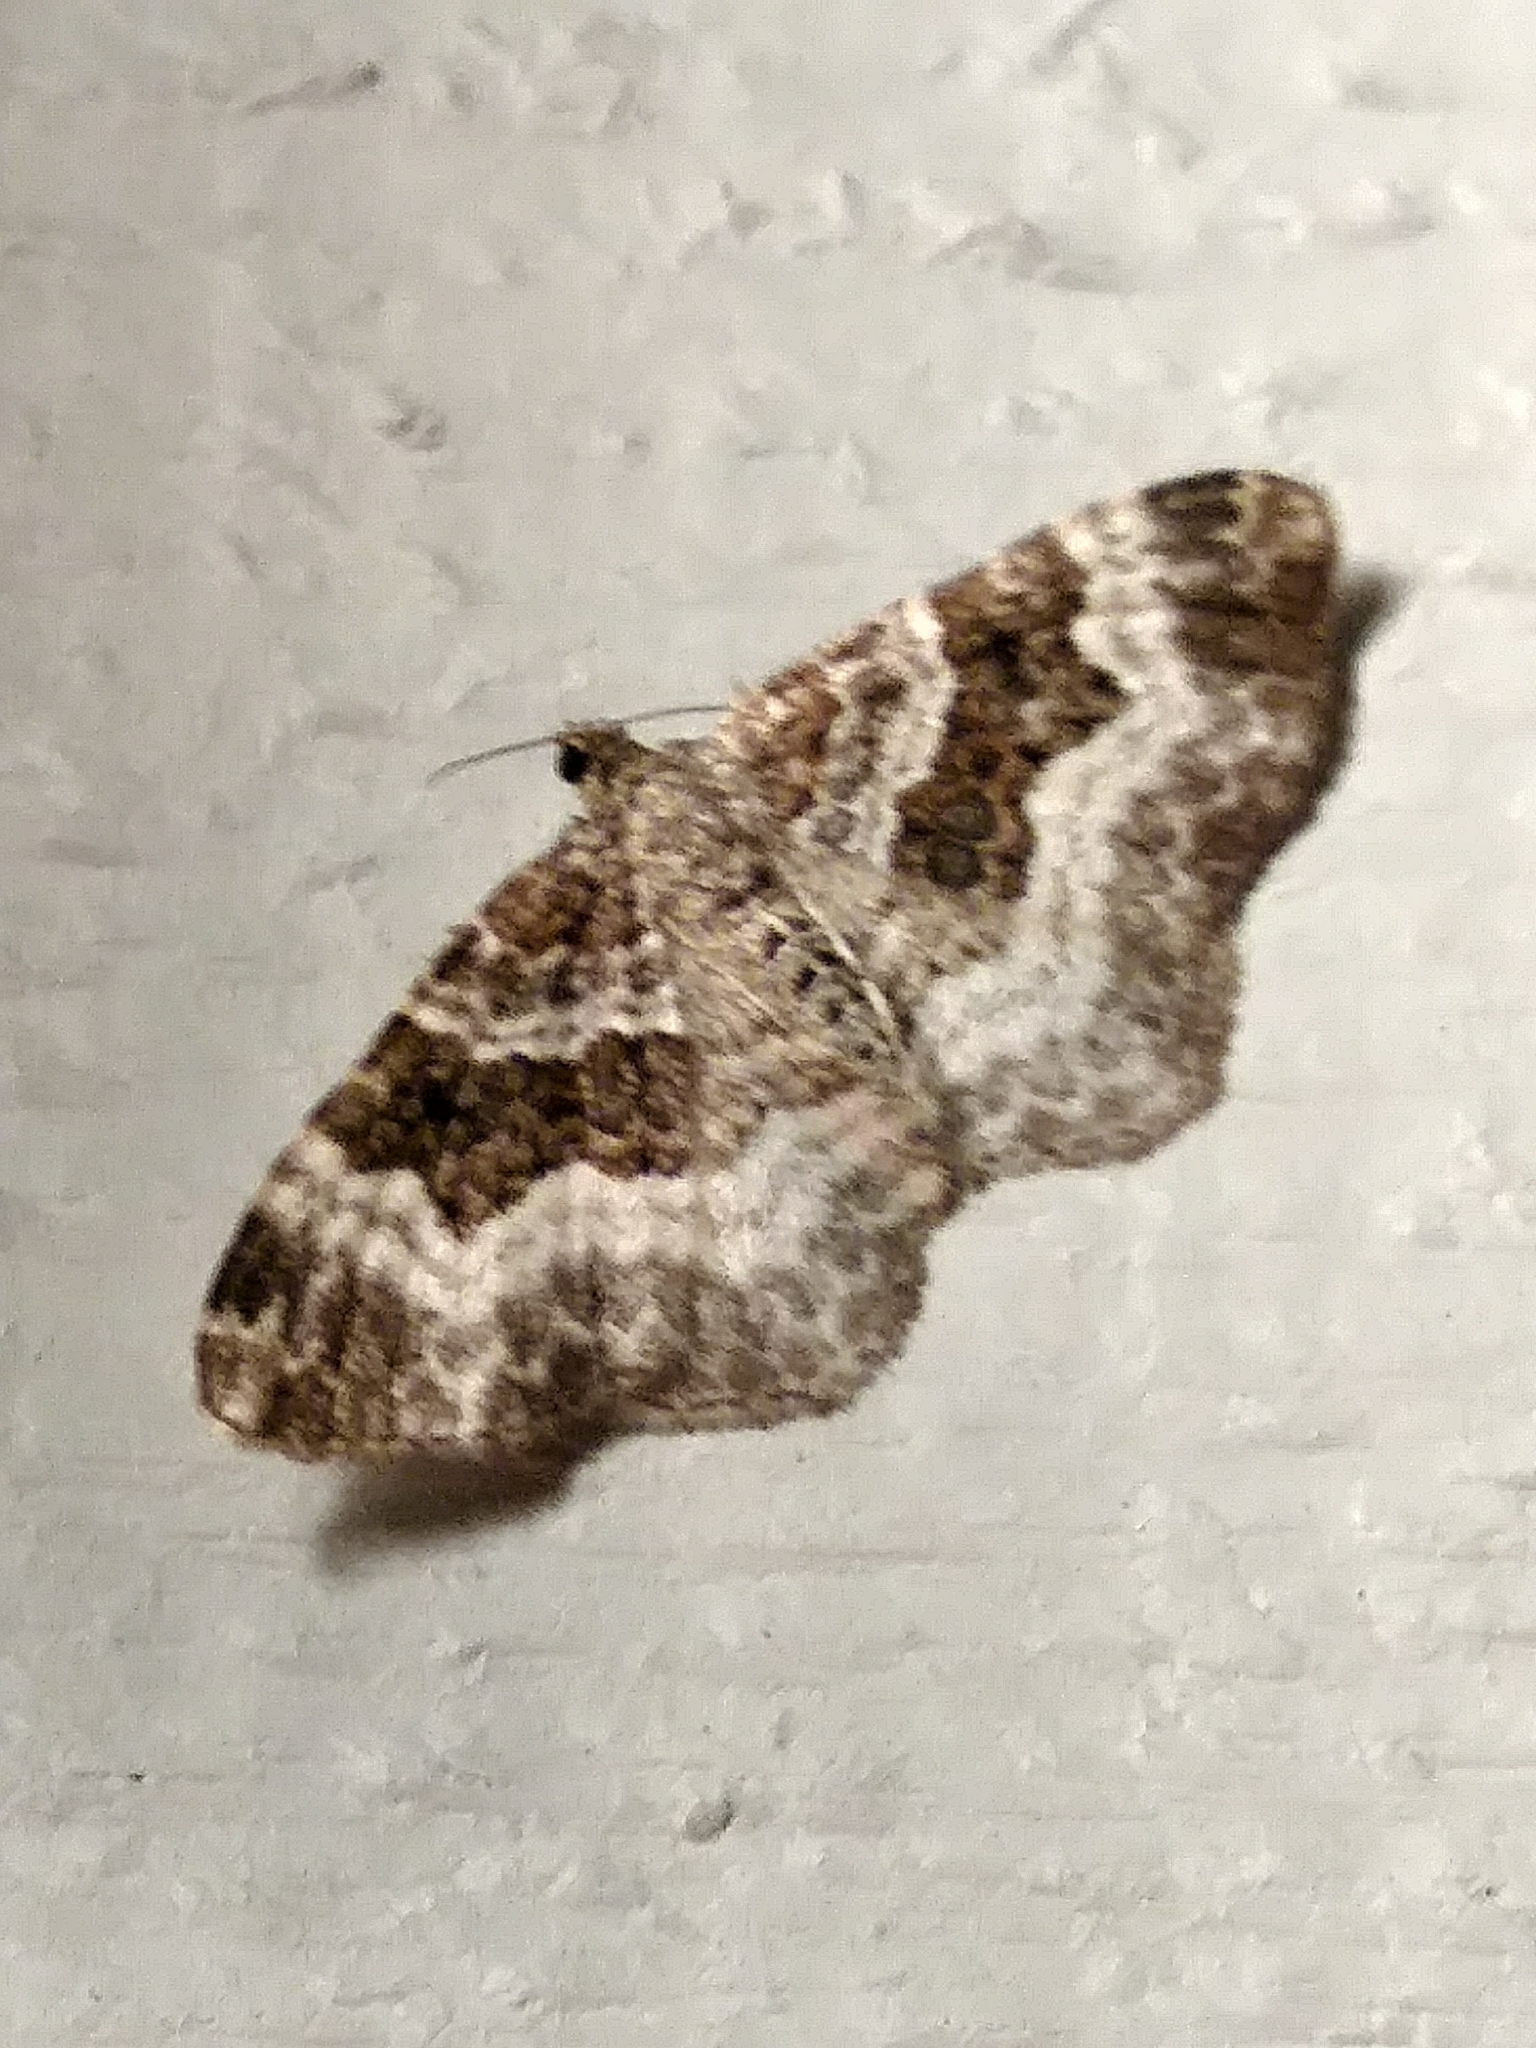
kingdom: Animalia
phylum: Arthropoda
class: Insecta
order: Lepidoptera
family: Geometridae
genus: Epirrhoe
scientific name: Epirrhoe alternata
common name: Common carpet
